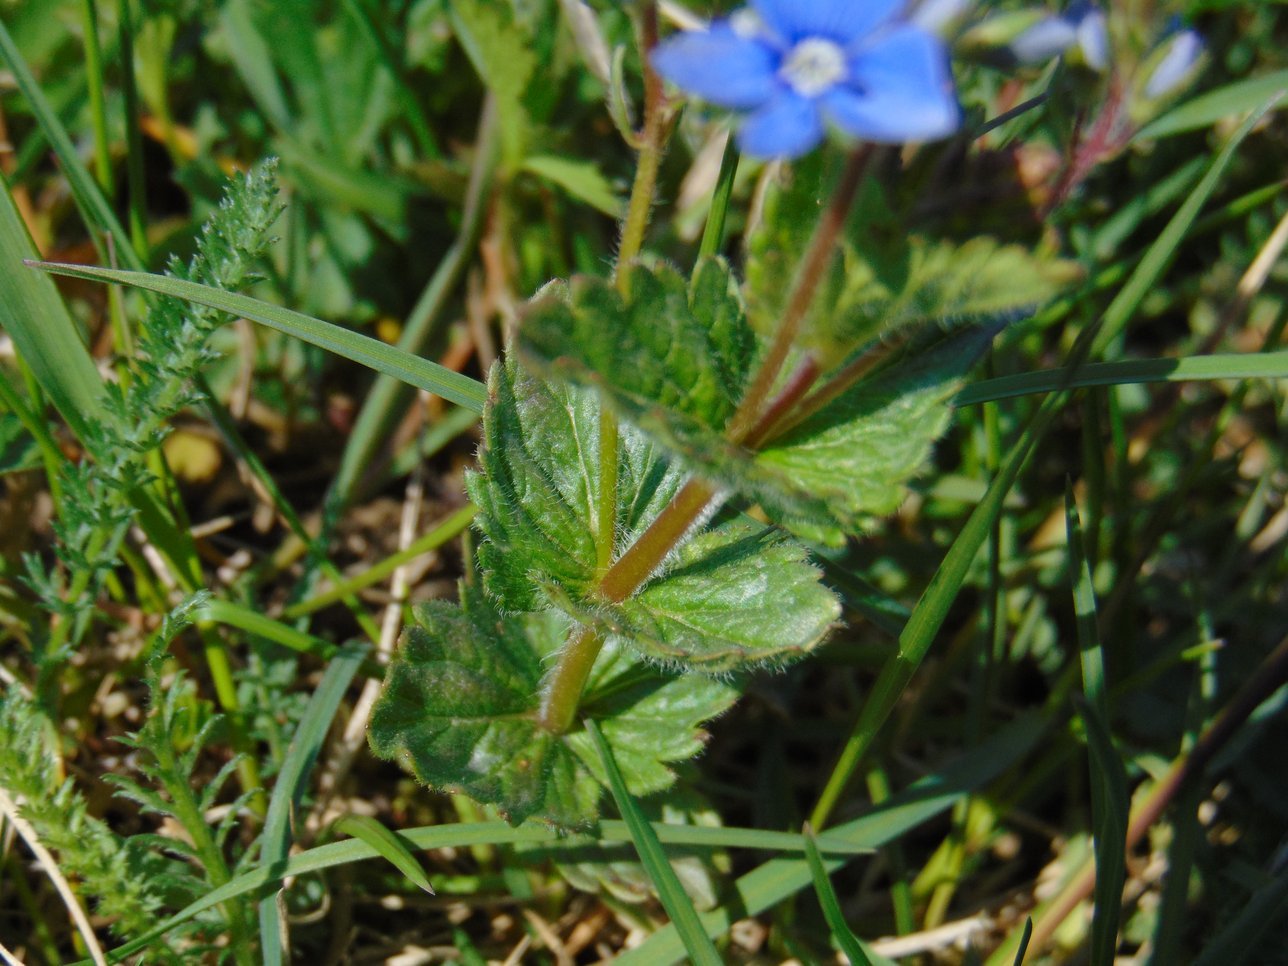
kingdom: Plantae
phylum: Tracheophyta
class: Magnoliopsida
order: Lamiales
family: Plantaginaceae
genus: Veronica
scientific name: Veronica chamaedrys
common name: Germander speedwell
